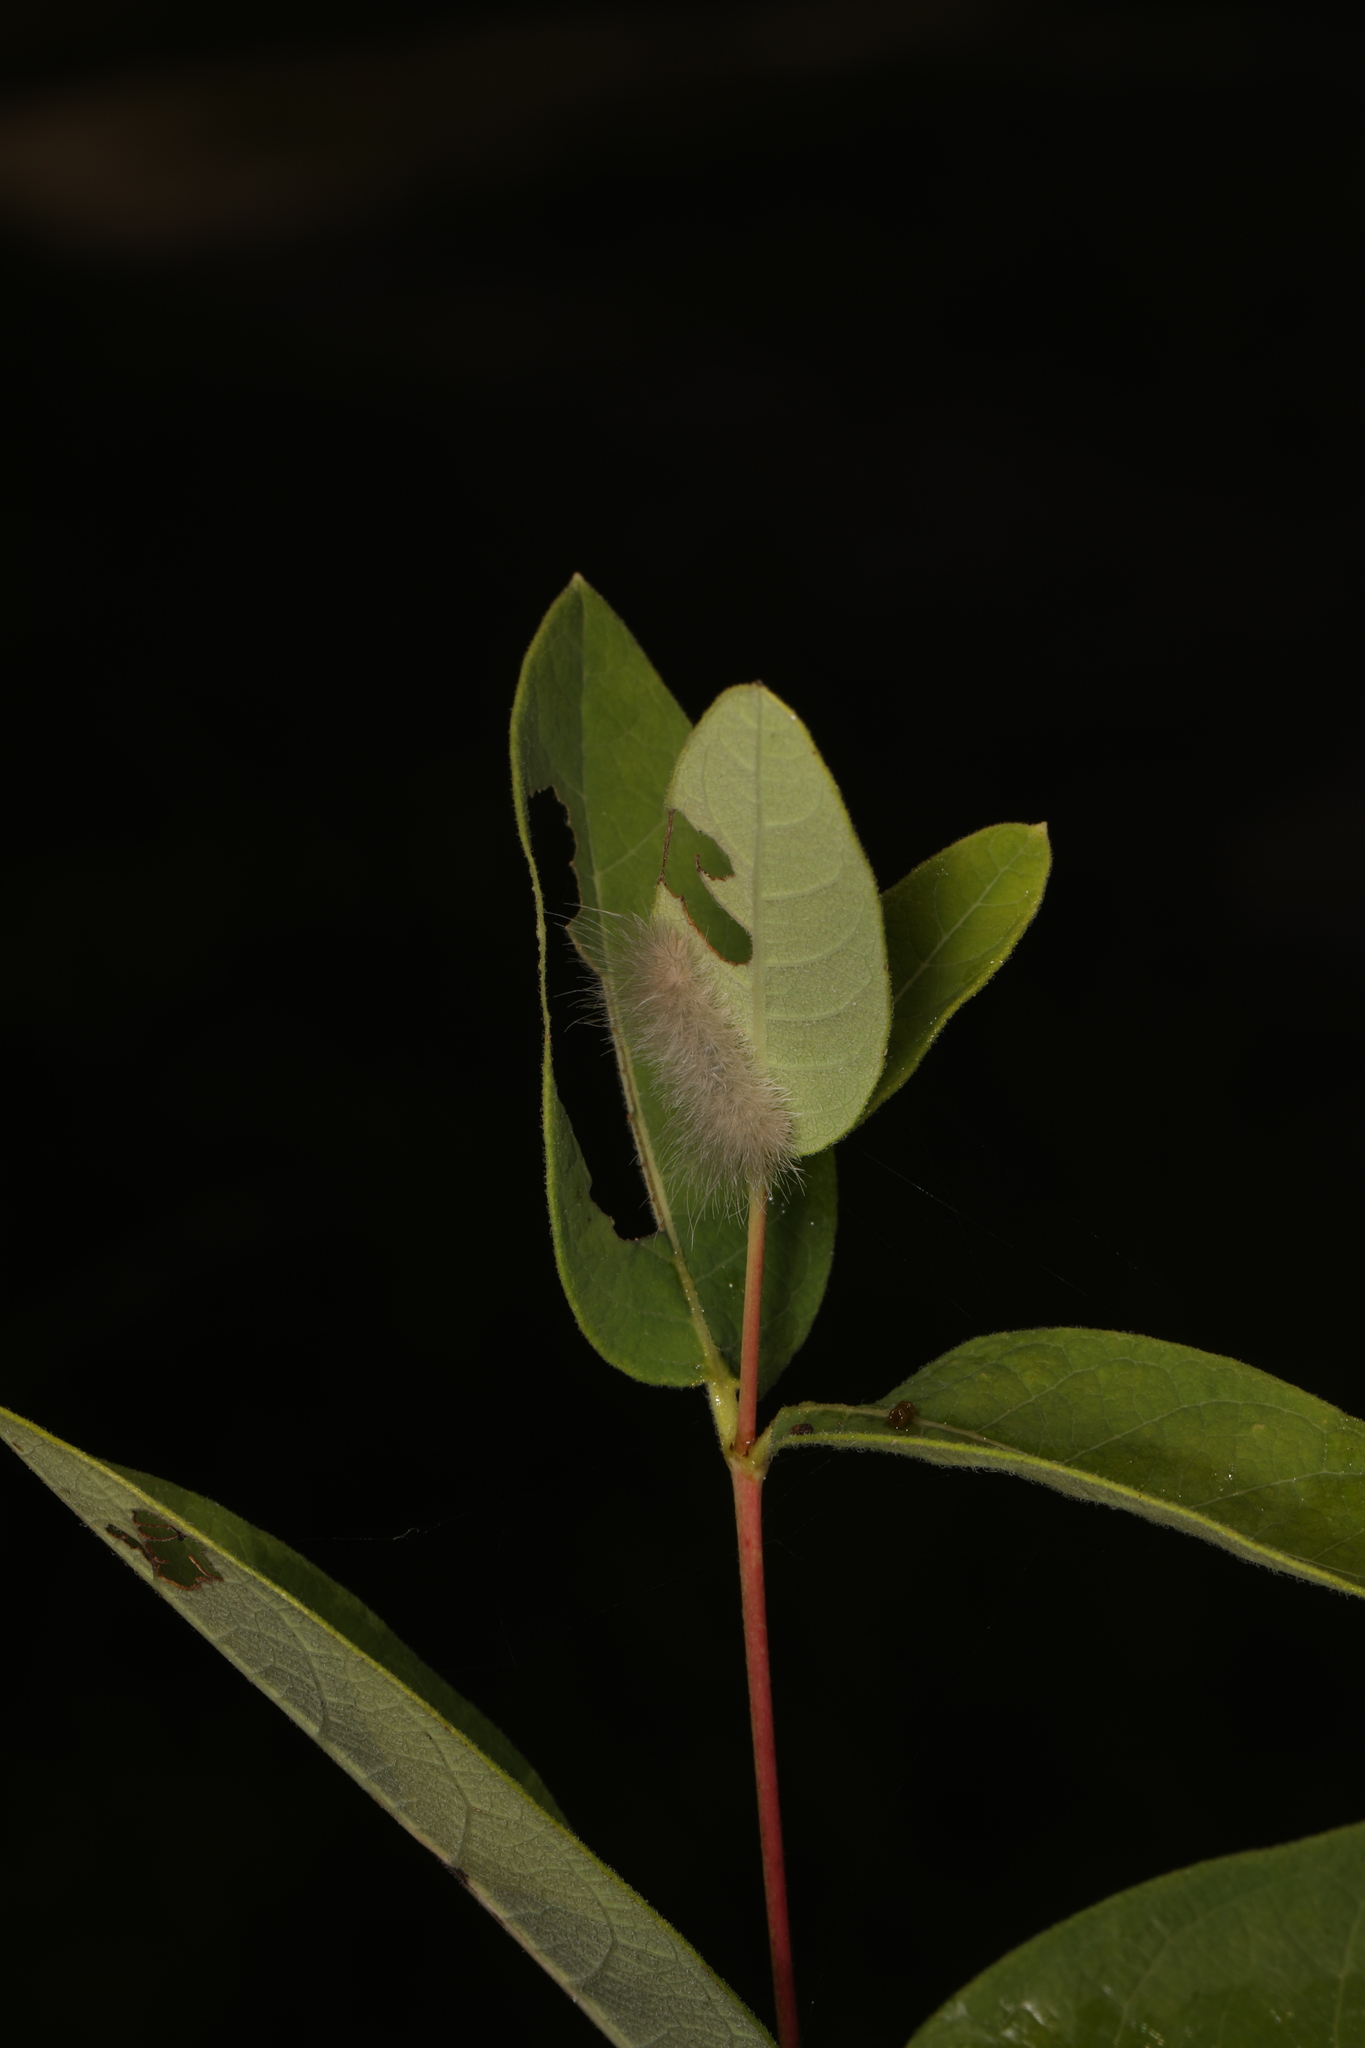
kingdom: Animalia
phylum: Arthropoda
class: Insecta
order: Lepidoptera
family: Erebidae
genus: Cycnia
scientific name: Cycnia tenera
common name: Delicate cycnia moth
